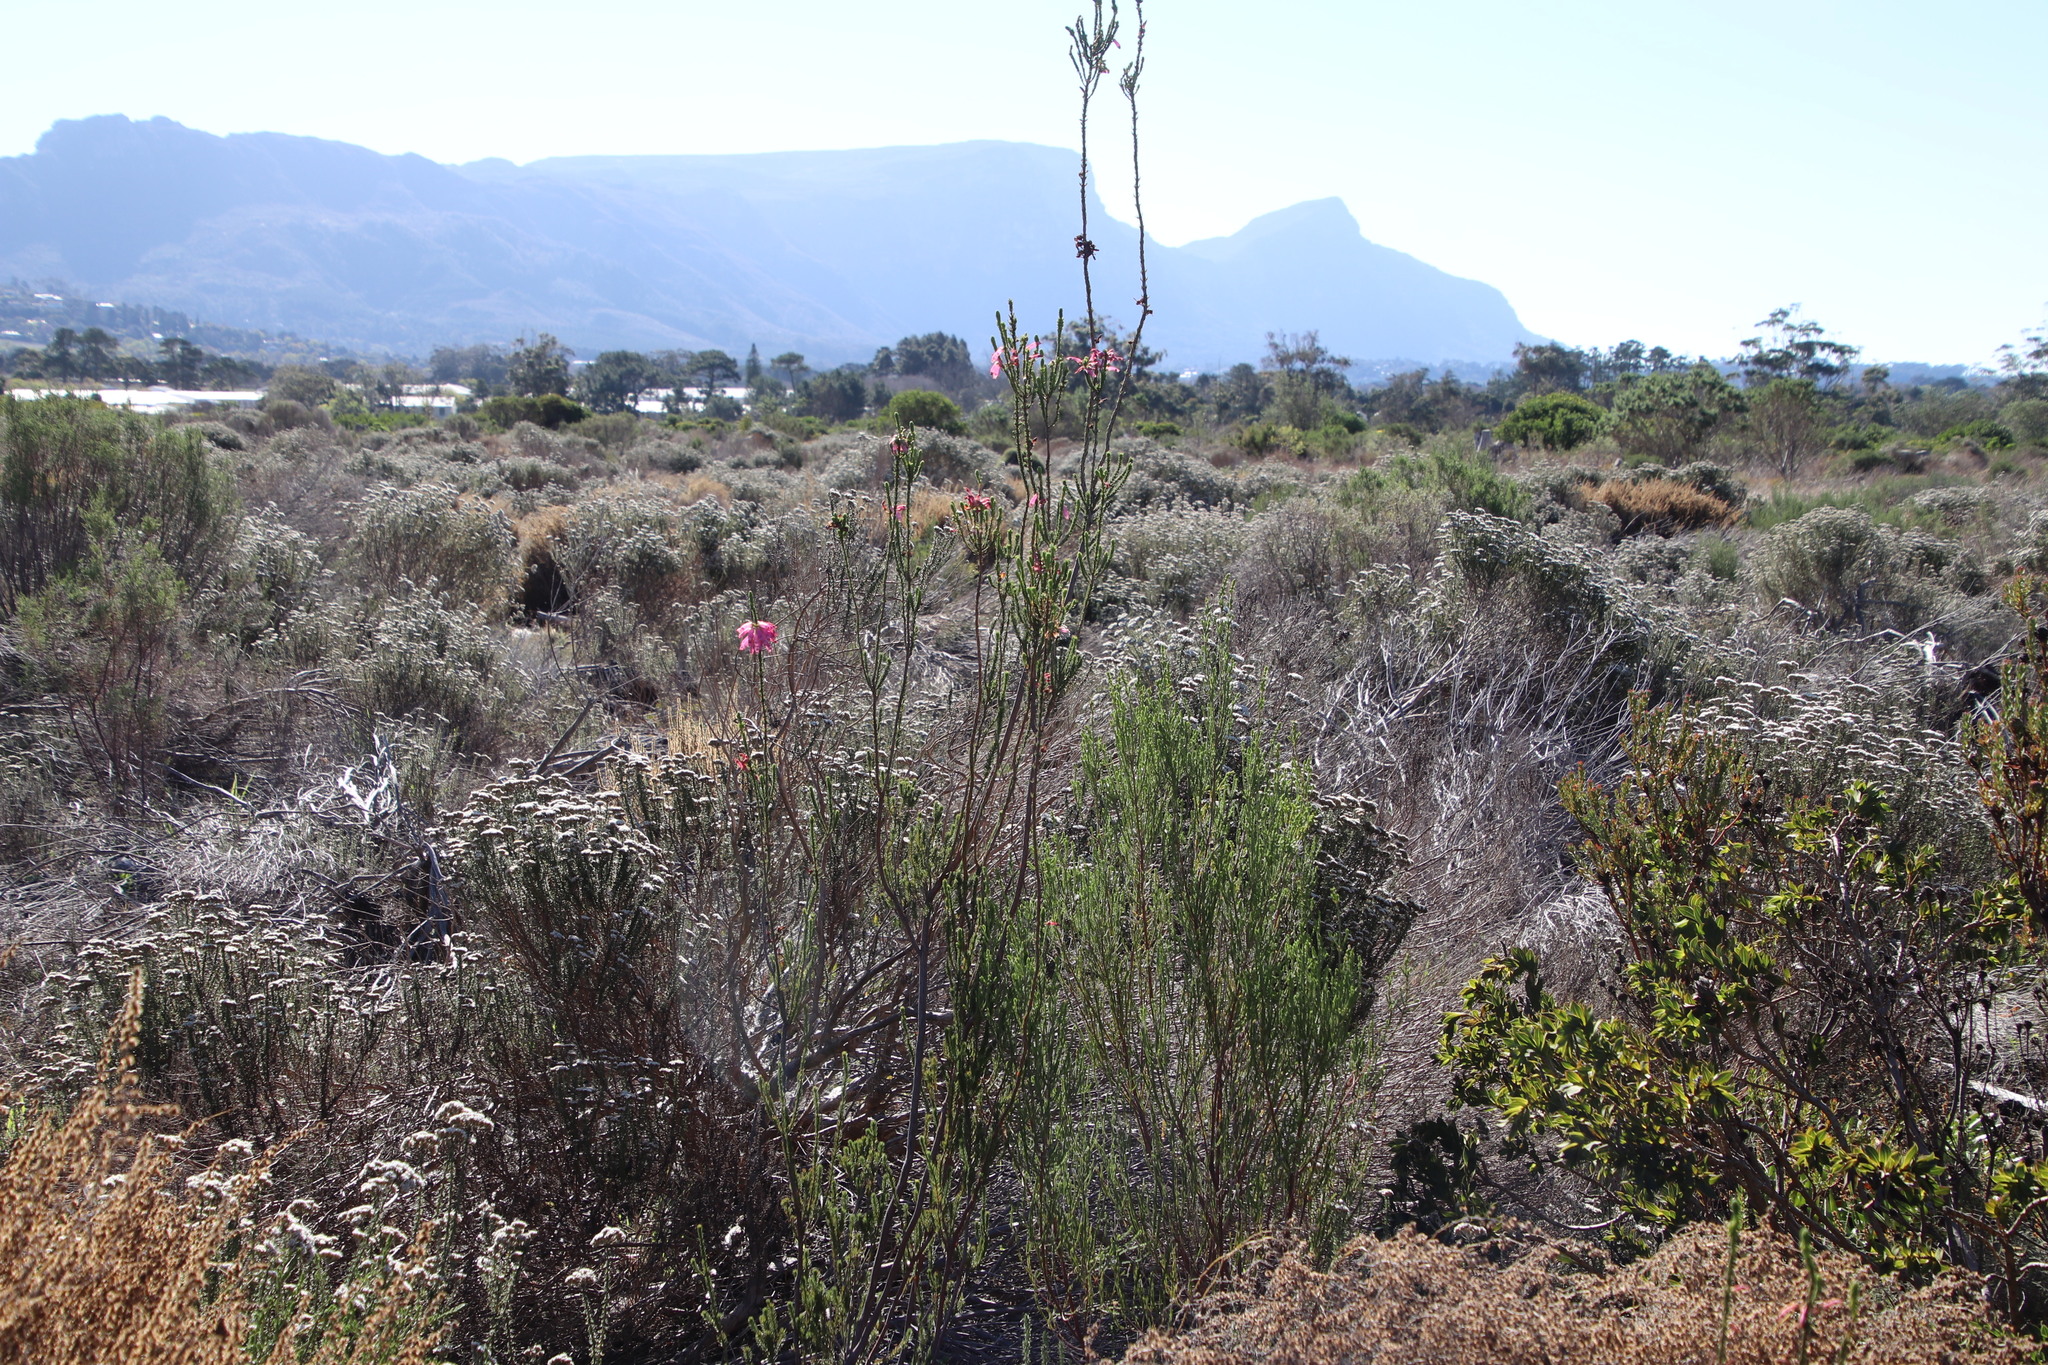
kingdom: Plantae
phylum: Tracheophyta
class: Magnoliopsida
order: Ericales
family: Ericaceae
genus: Erica
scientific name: Erica mammosa
